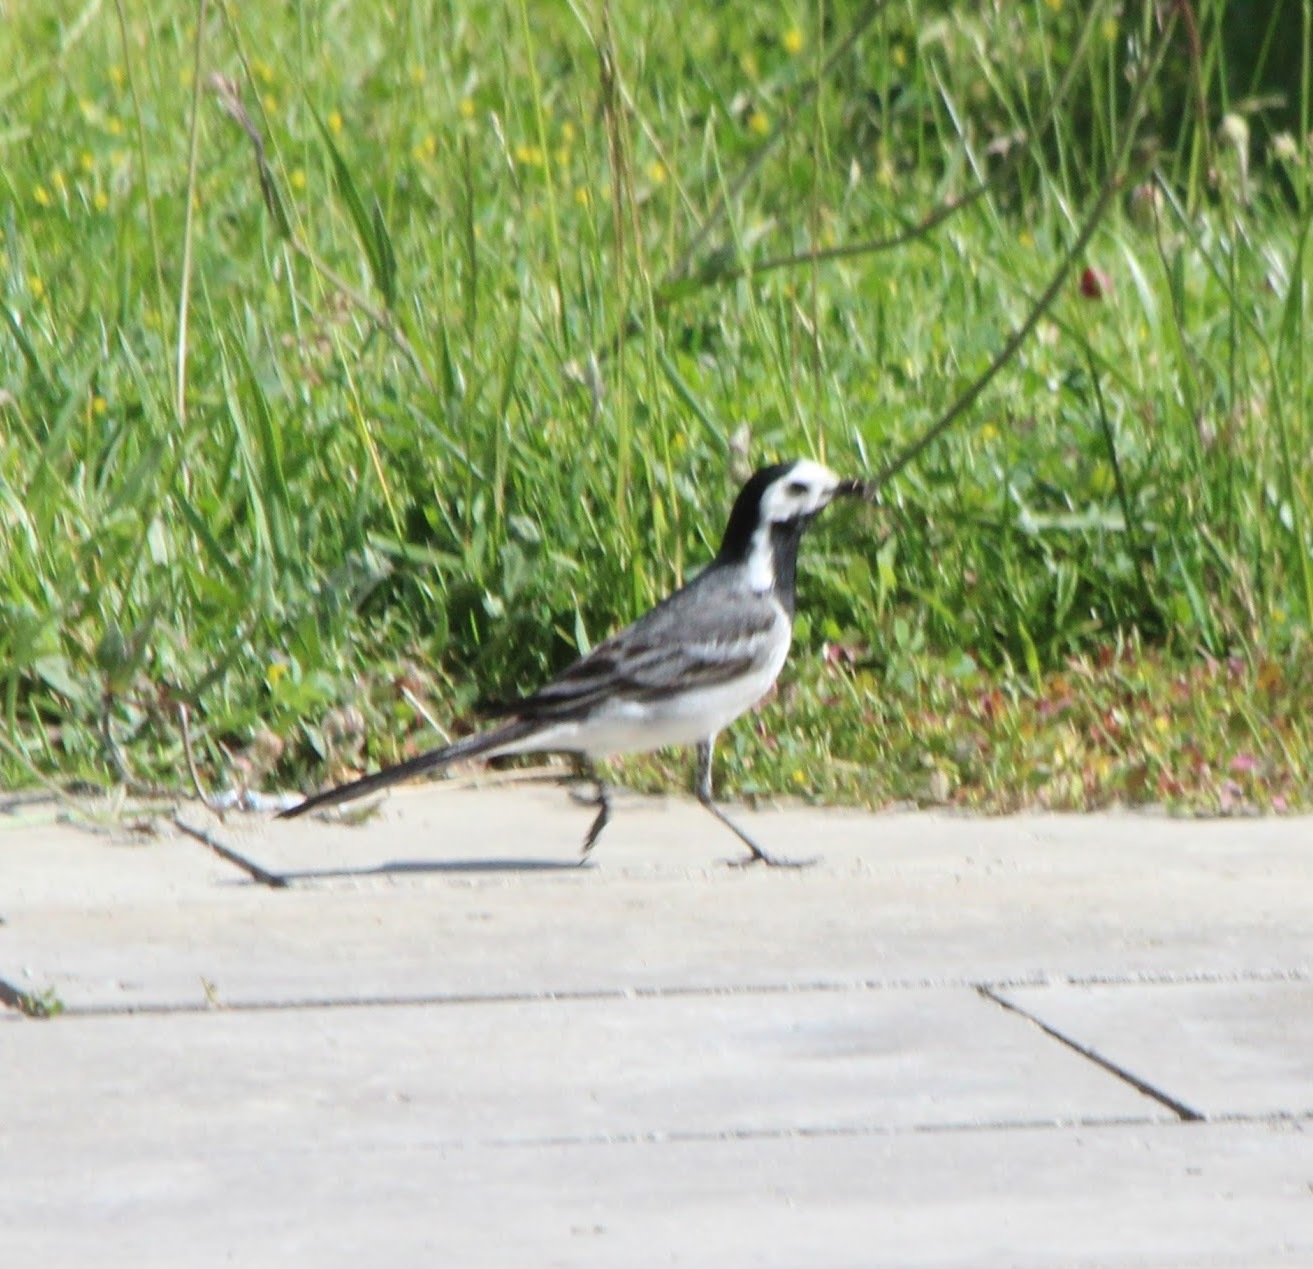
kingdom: Animalia
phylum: Chordata
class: Aves
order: Passeriformes
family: Motacillidae
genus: Motacilla
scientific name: Motacilla alba
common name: White wagtail
